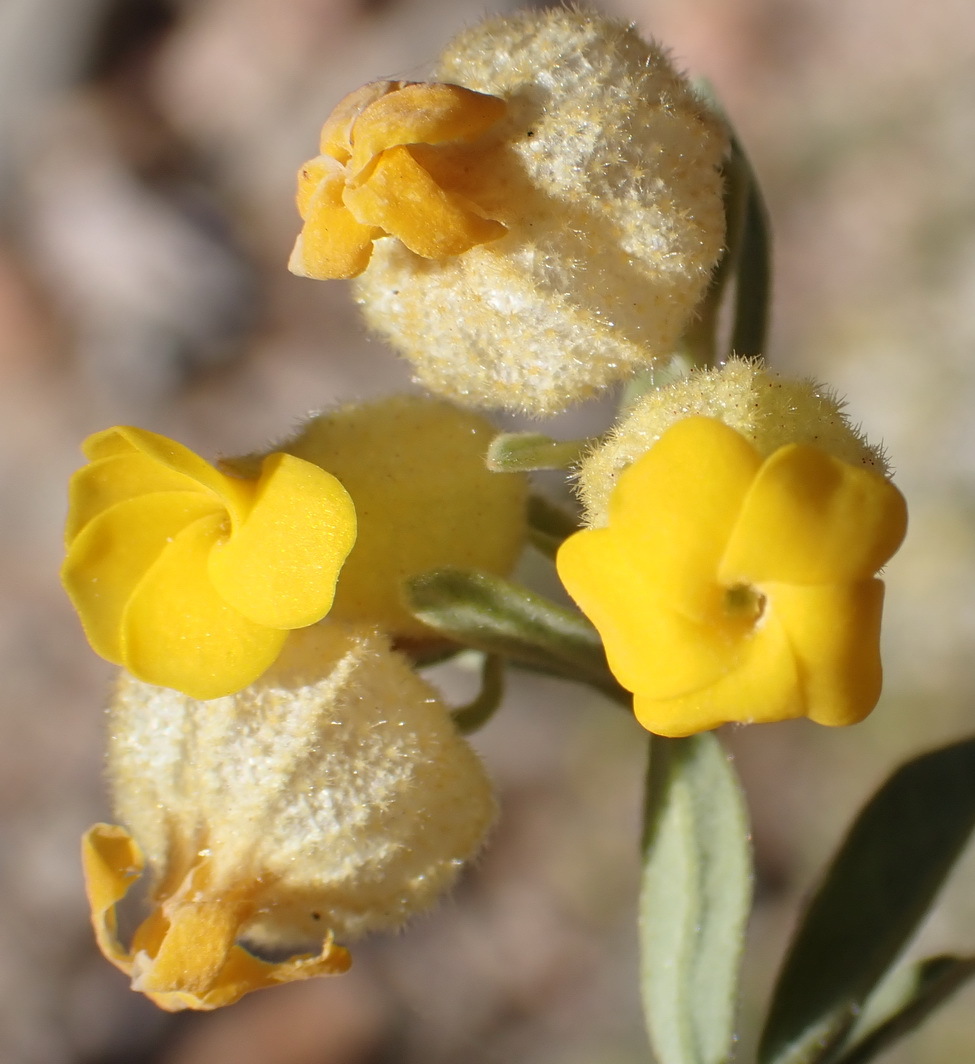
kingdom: Plantae
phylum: Tracheophyta
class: Magnoliopsida
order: Malvales
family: Malvaceae
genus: Hermannia
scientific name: Hermannia mucronulata
